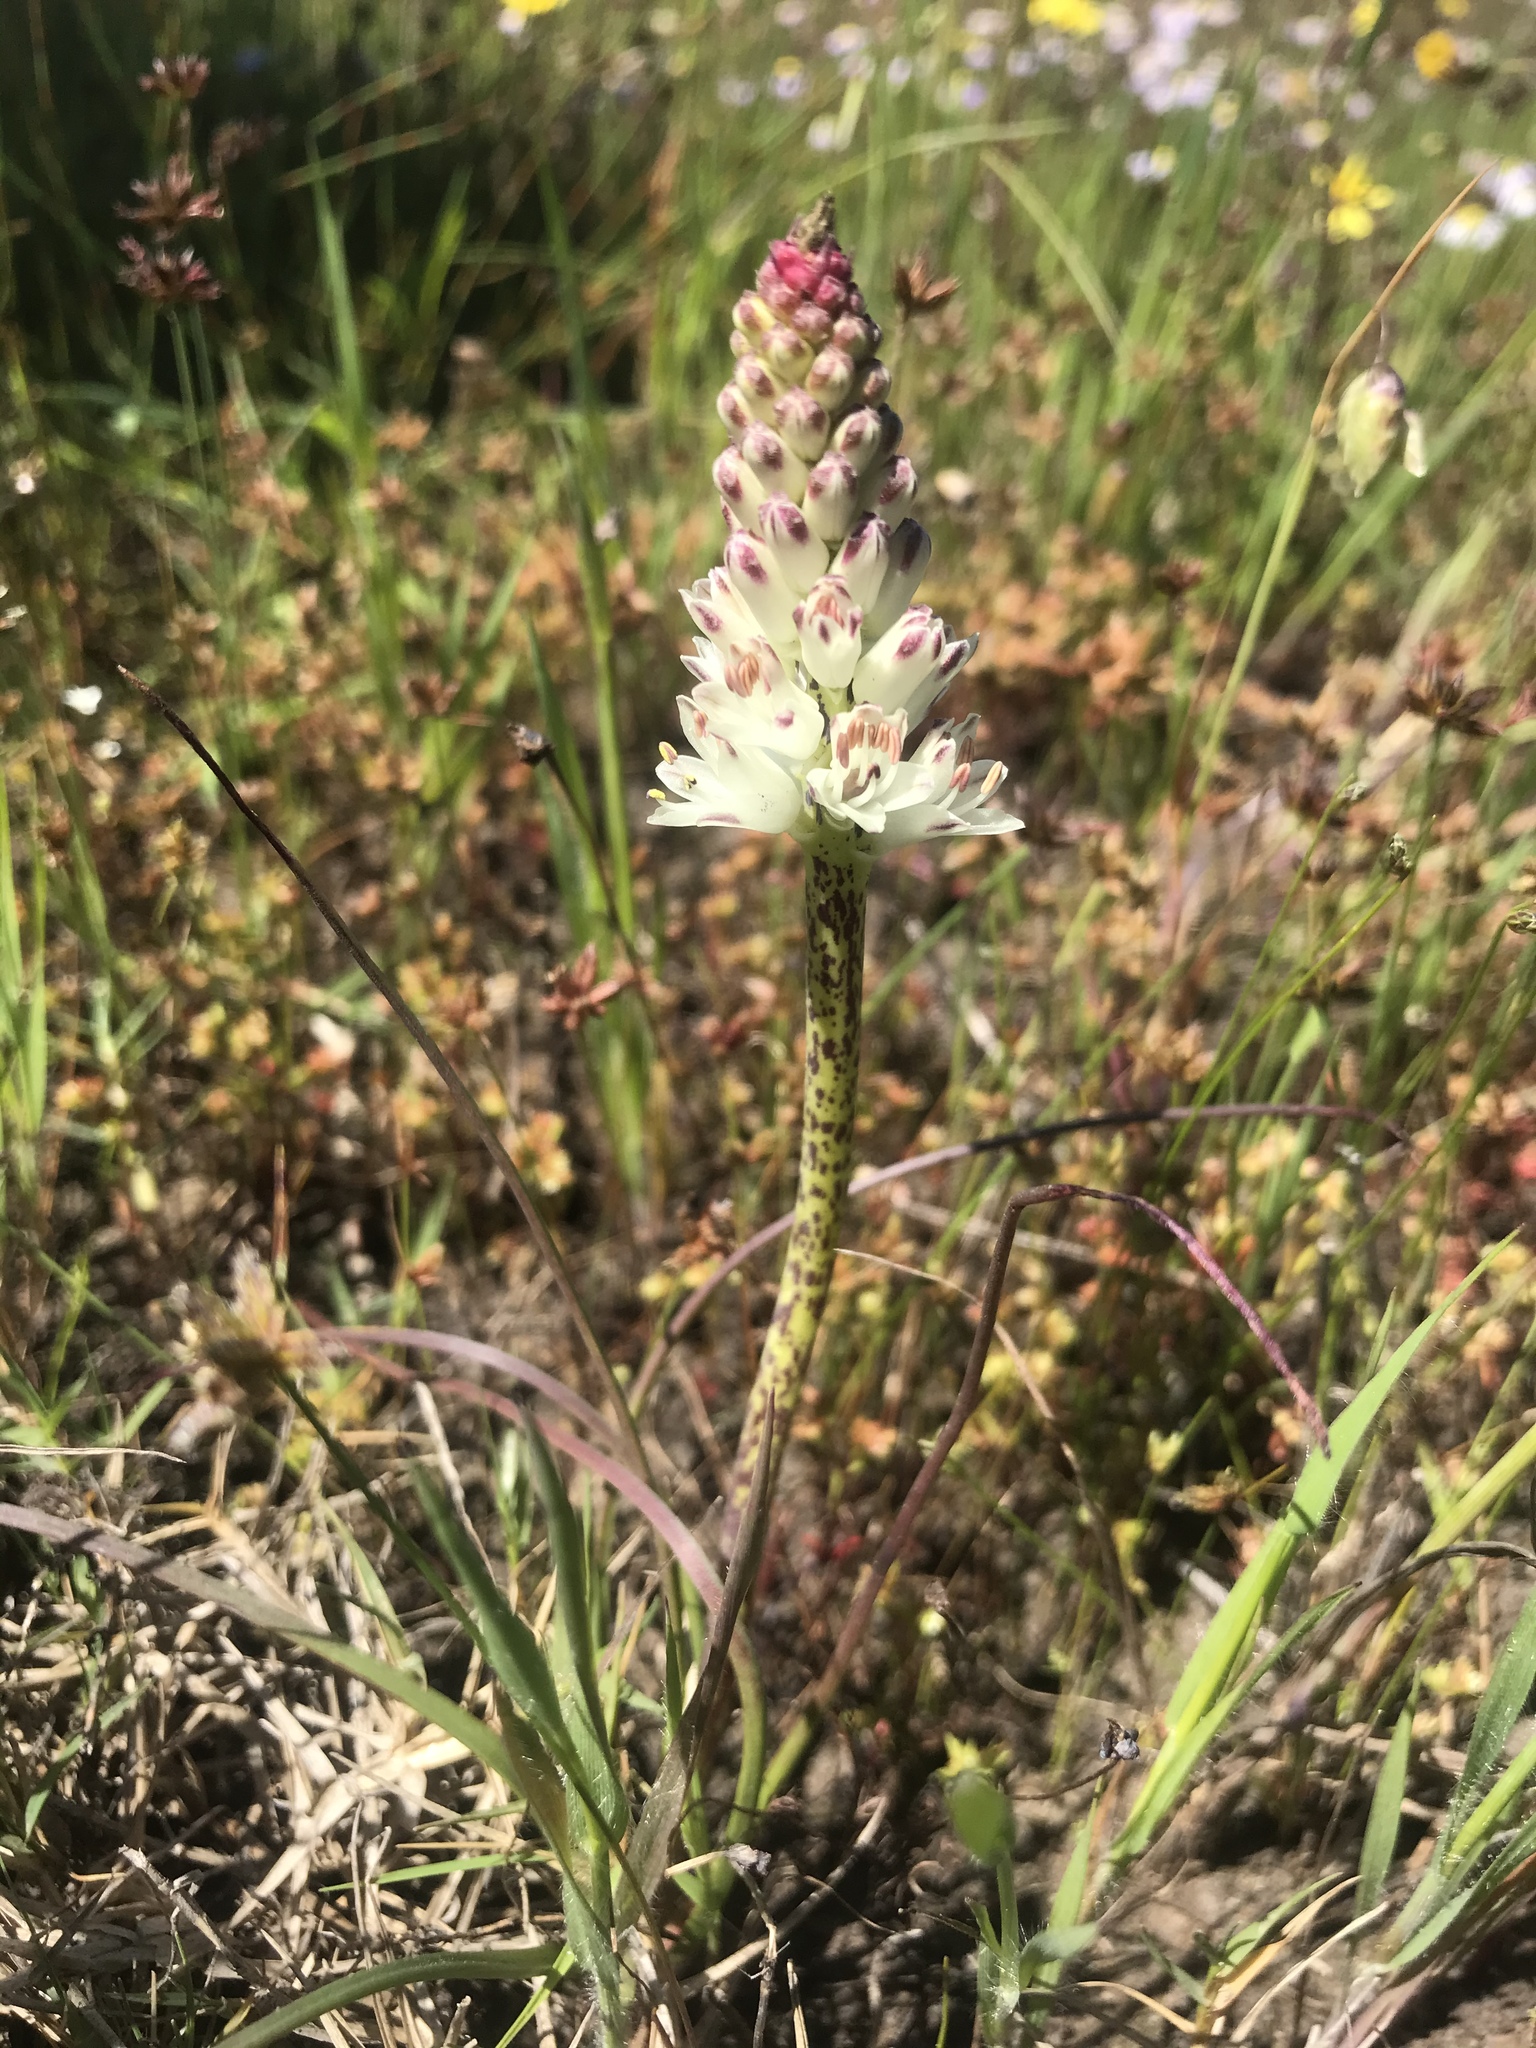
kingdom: Plantae
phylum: Tracheophyta
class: Liliopsida
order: Asparagales
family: Asparagaceae
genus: Lachenalia
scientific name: Lachenalia contaminata
